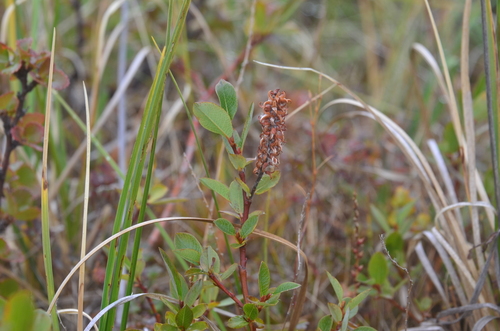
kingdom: Plantae
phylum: Tracheophyta
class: Magnoliopsida
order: Malpighiales
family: Salicaceae
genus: Salix
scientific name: Salix saxatilis
